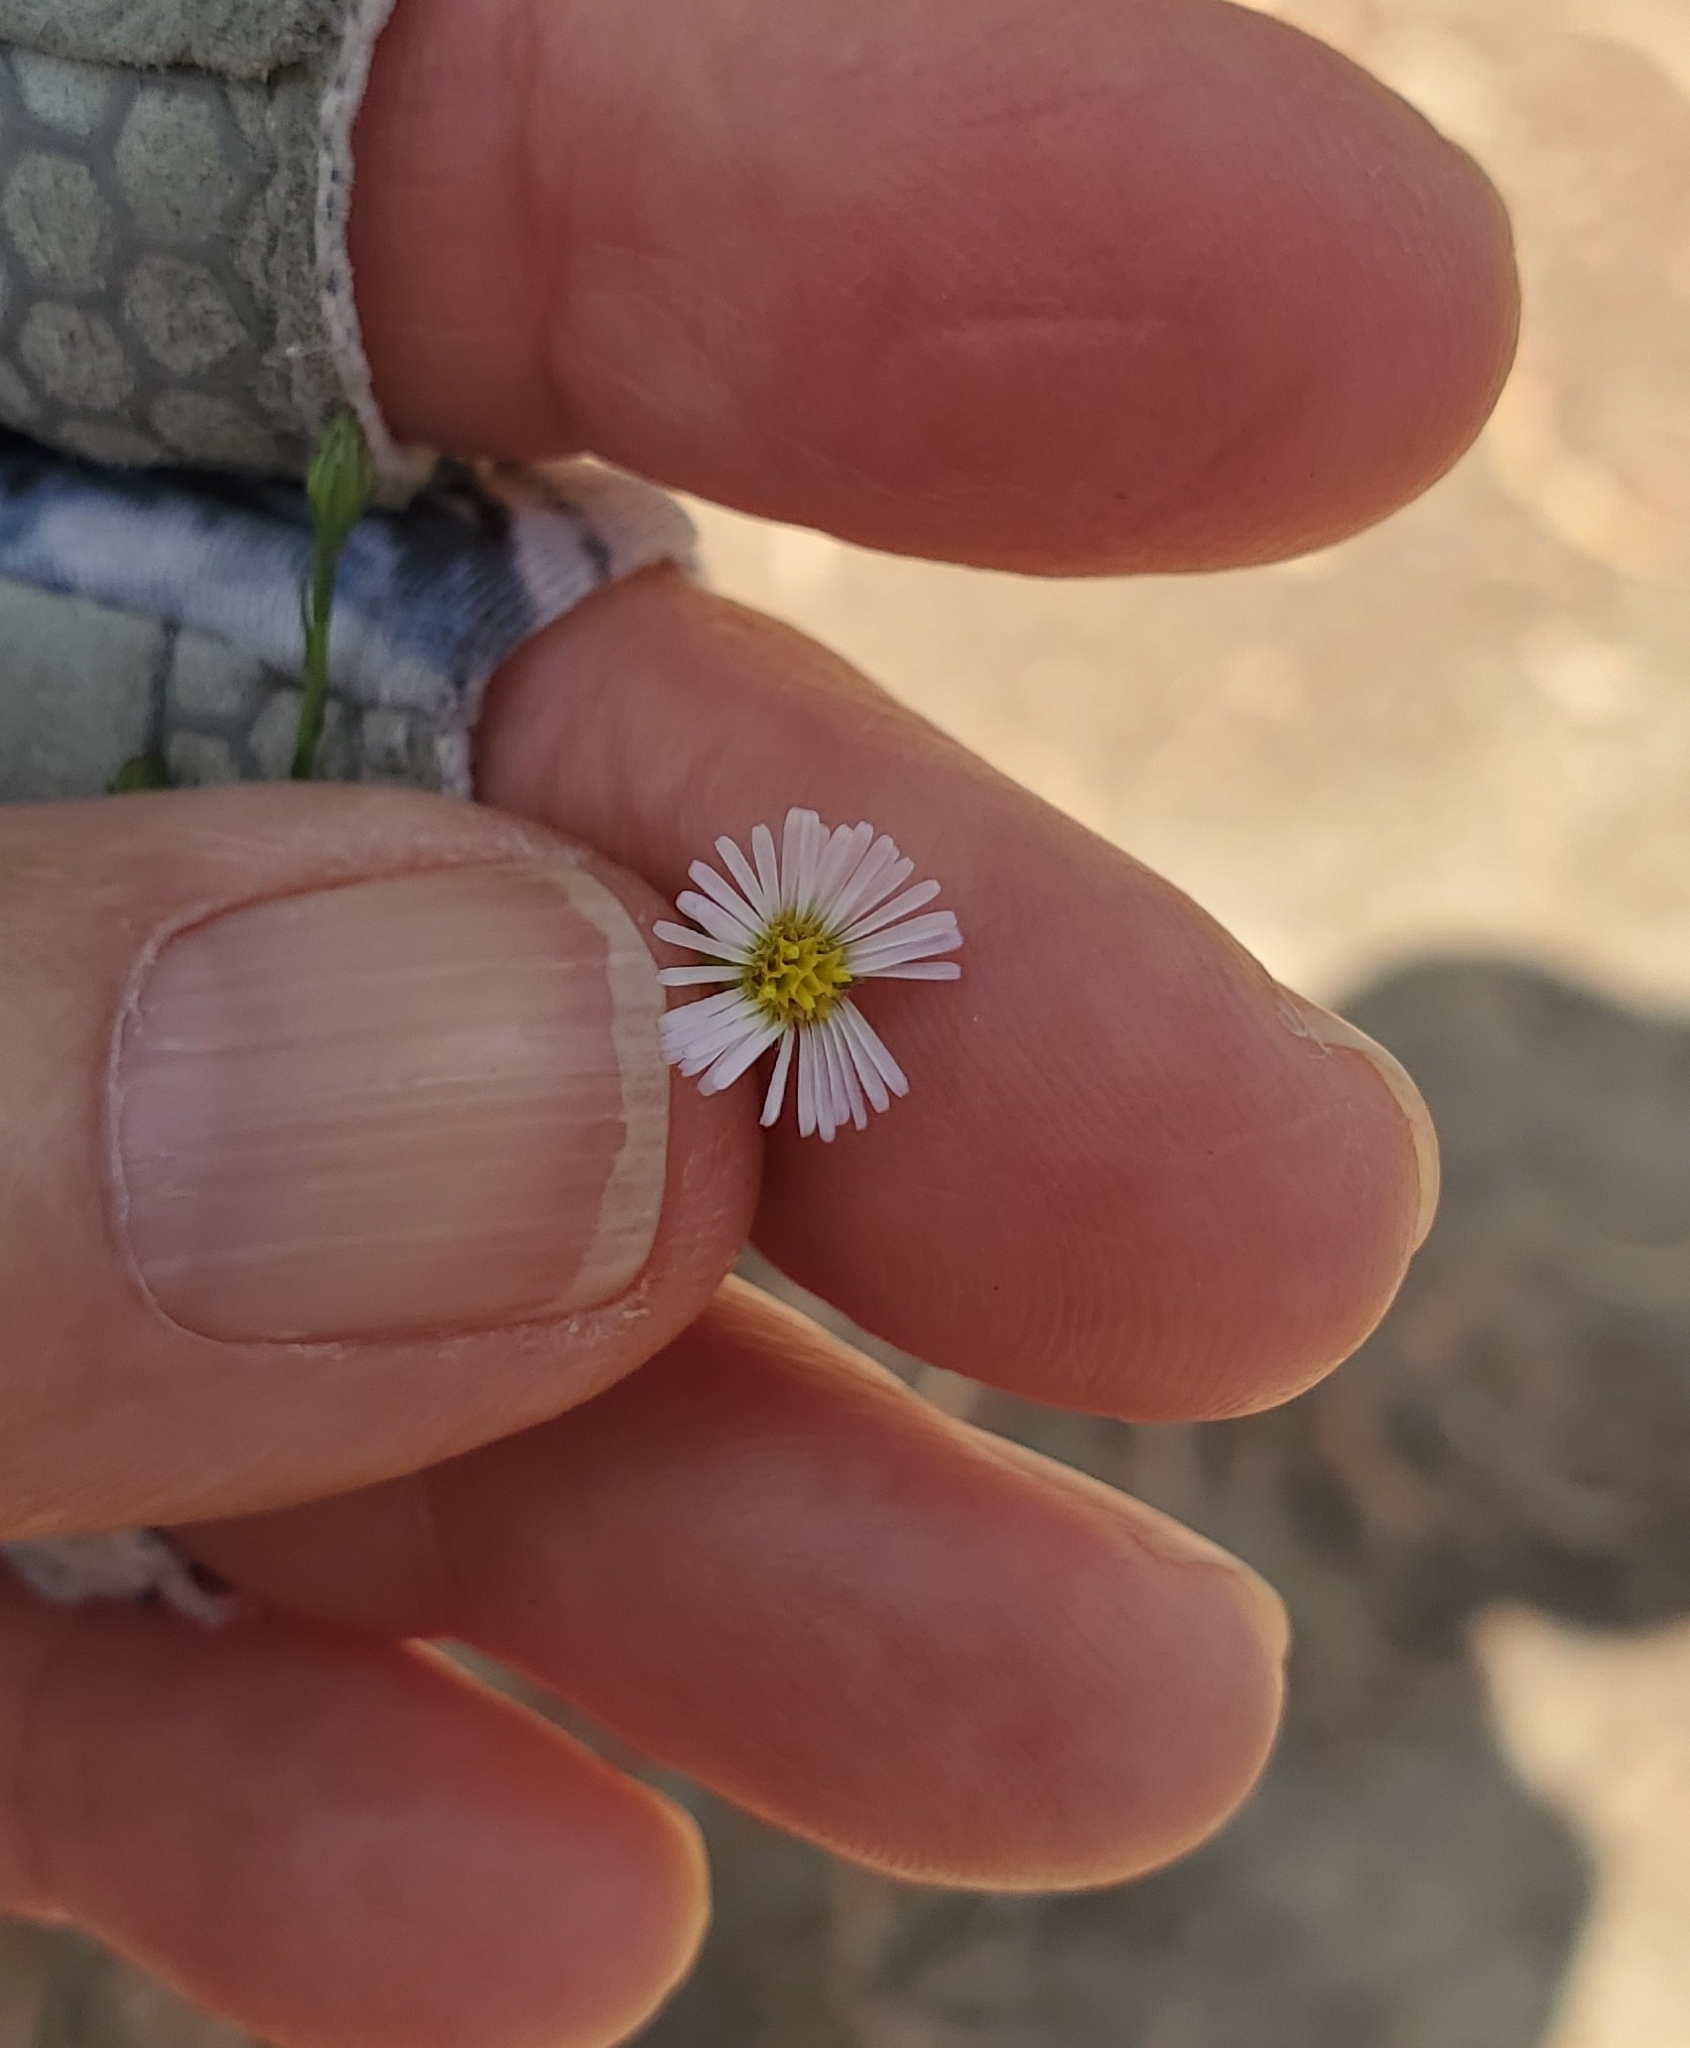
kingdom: Plantae
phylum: Tracheophyta
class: Magnoliopsida
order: Asterales
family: Asteraceae
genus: Symphyotrichum
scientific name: Symphyotrichum expansum
